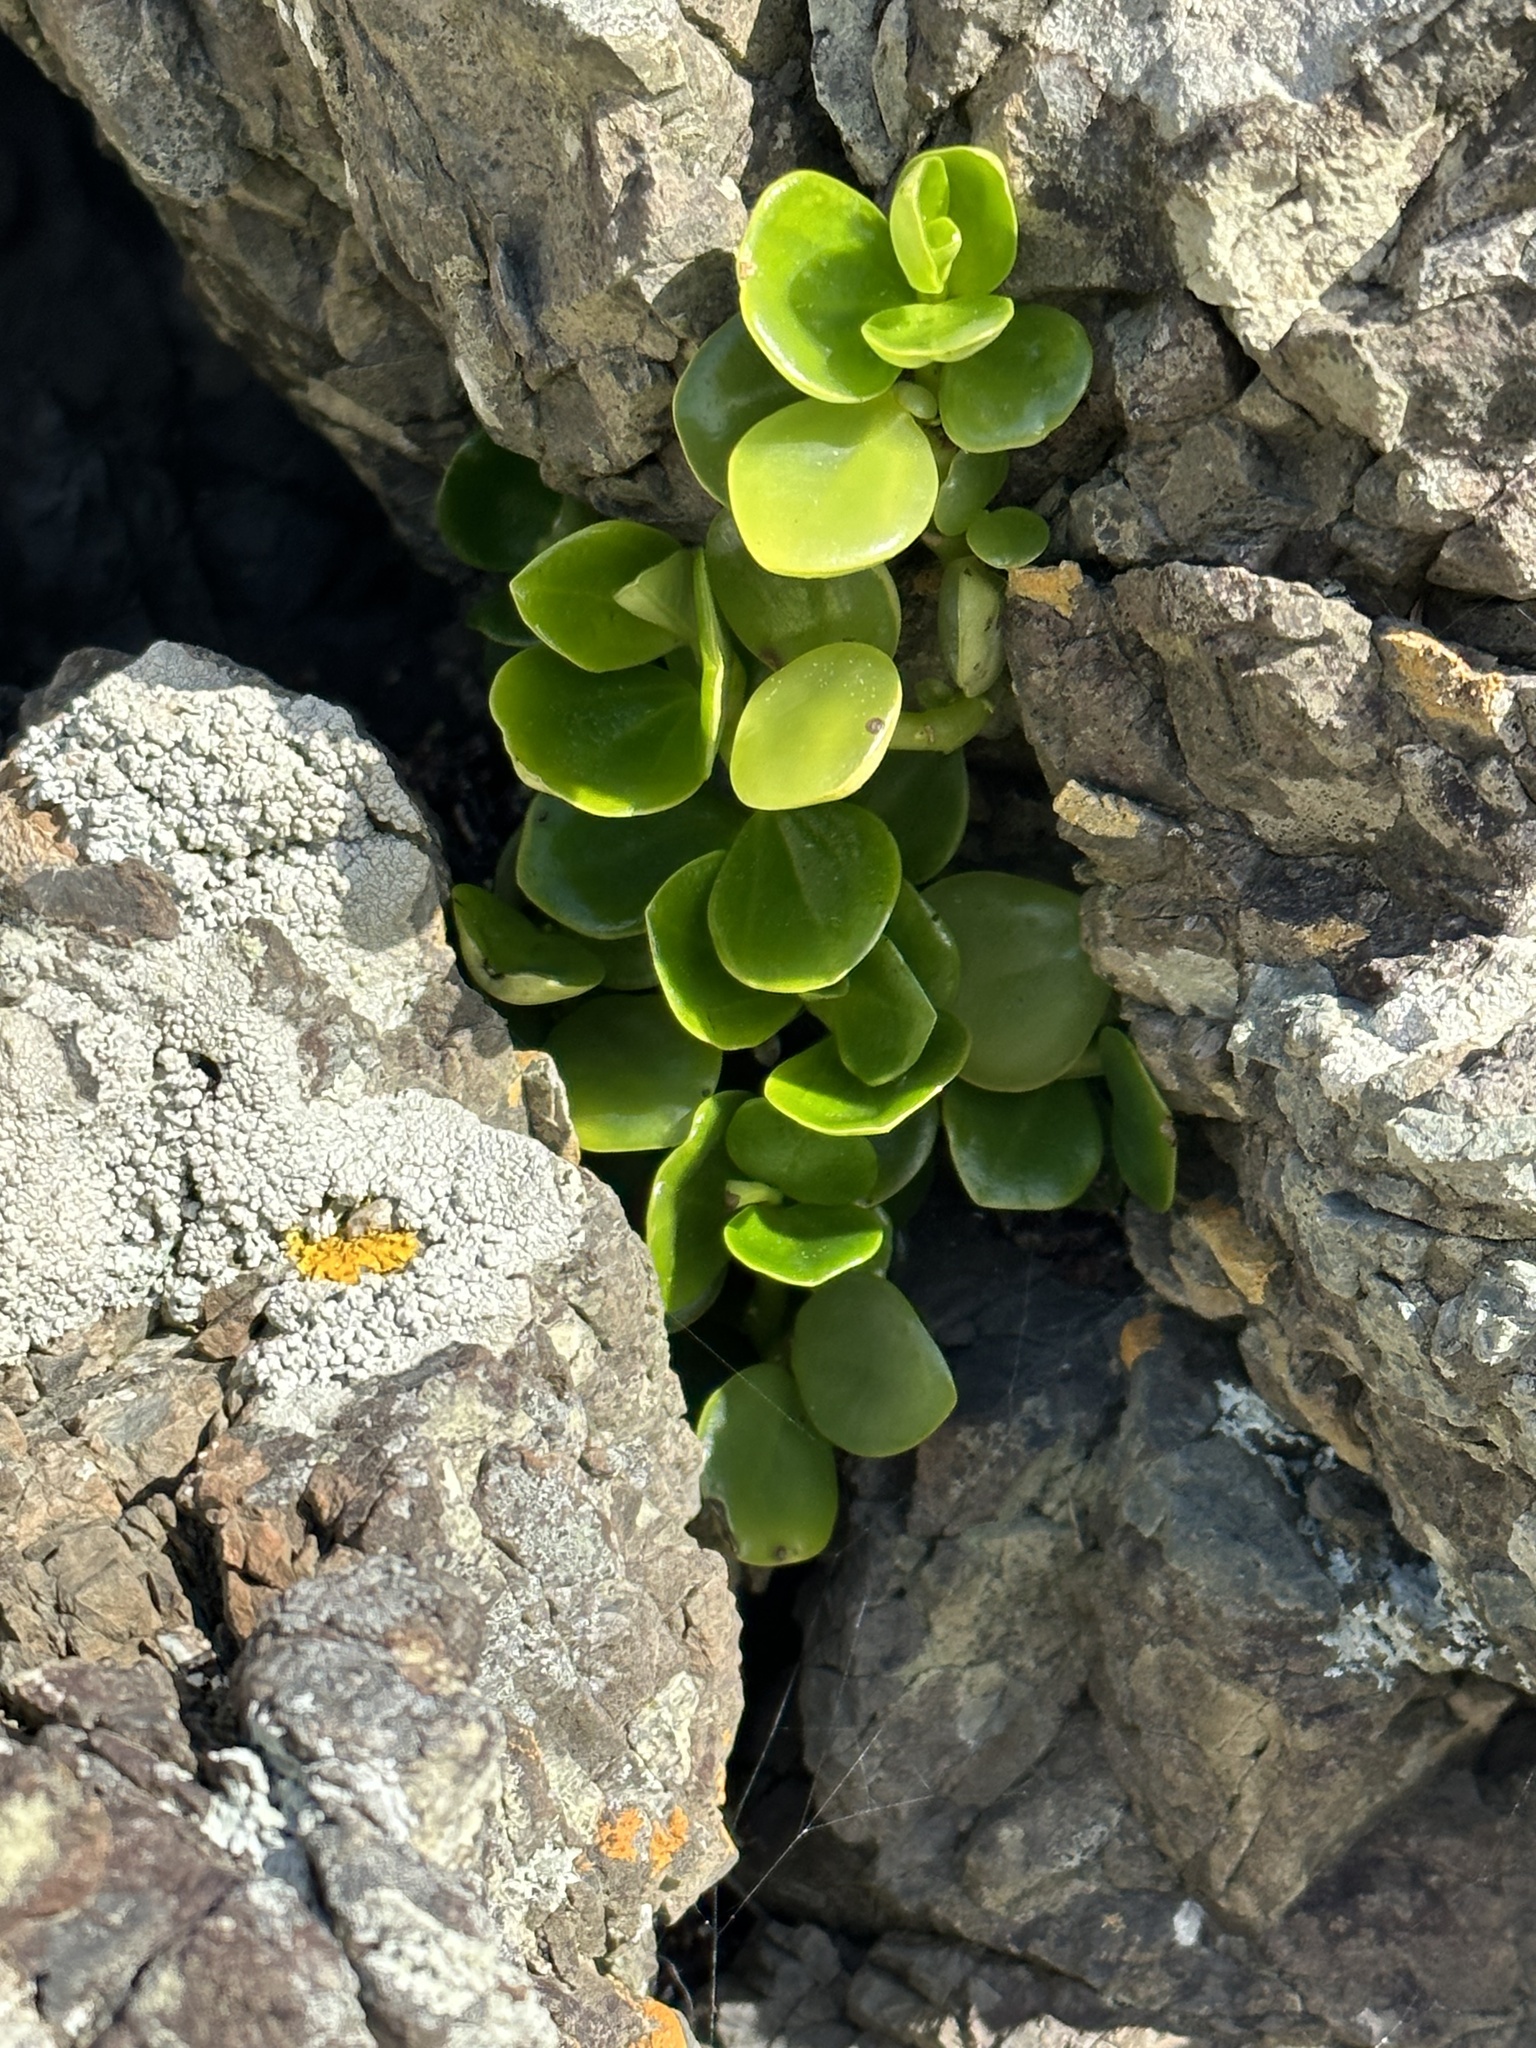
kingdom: Plantae
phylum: Tracheophyta
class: Magnoliopsida
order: Piperales
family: Piperaceae
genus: Peperomia
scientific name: Peperomia urvilleana
